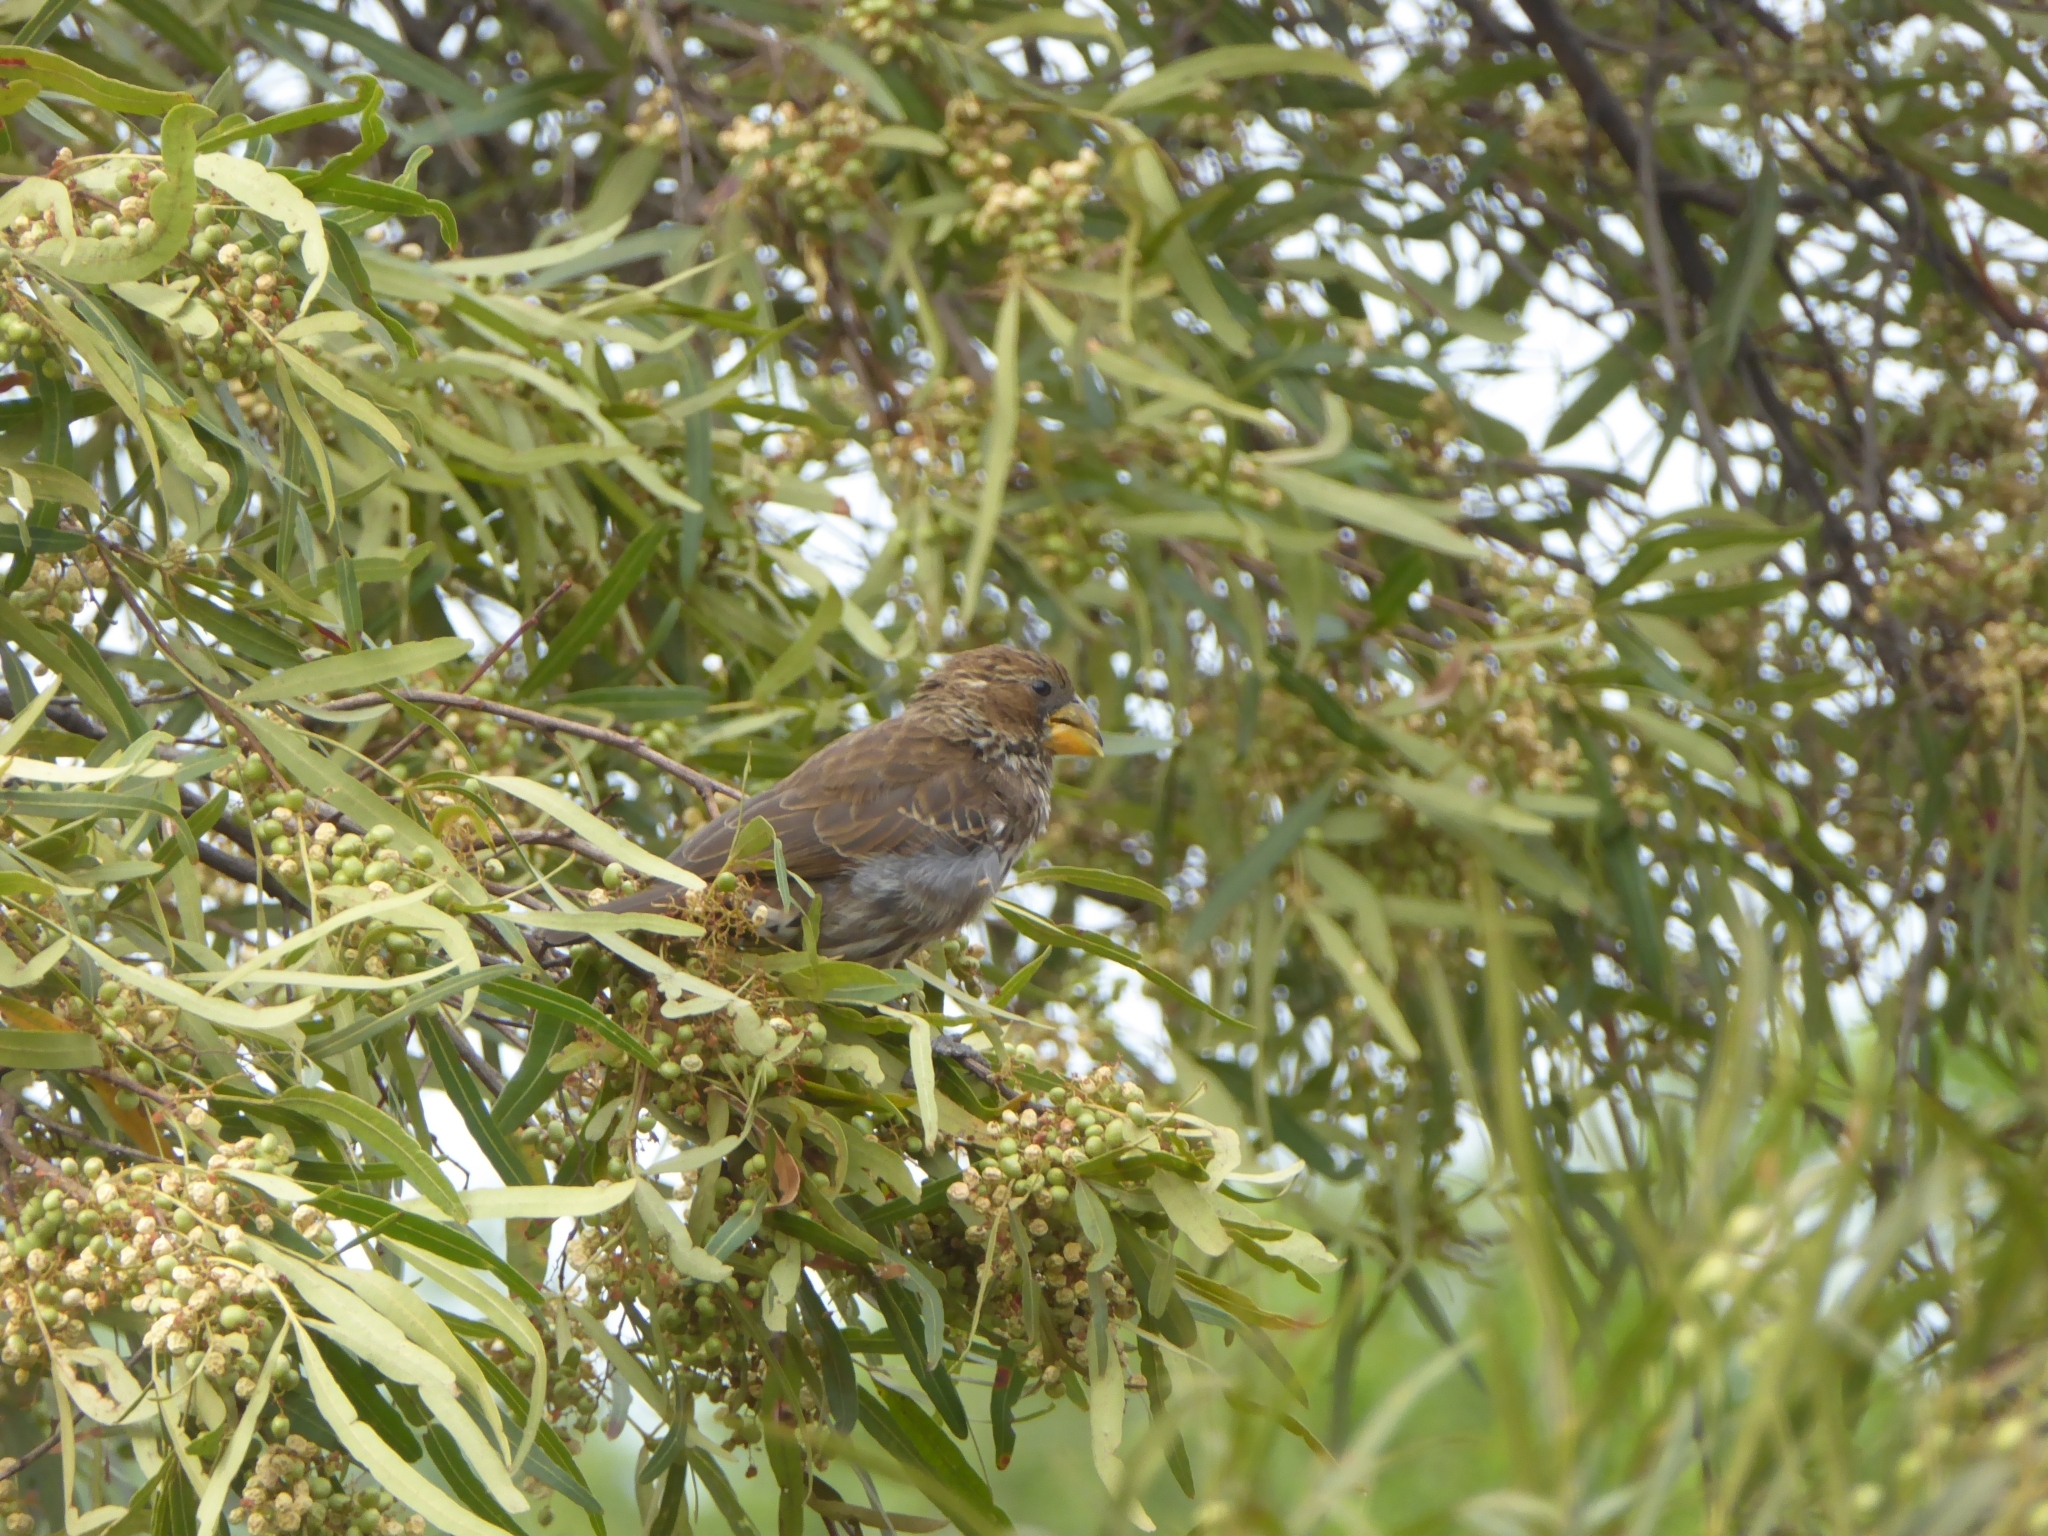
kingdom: Animalia
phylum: Chordata
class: Aves
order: Passeriformes
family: Ploceidae
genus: Amblyospiza
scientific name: Amblyospiza albifrons
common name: Thick-billed weaver
